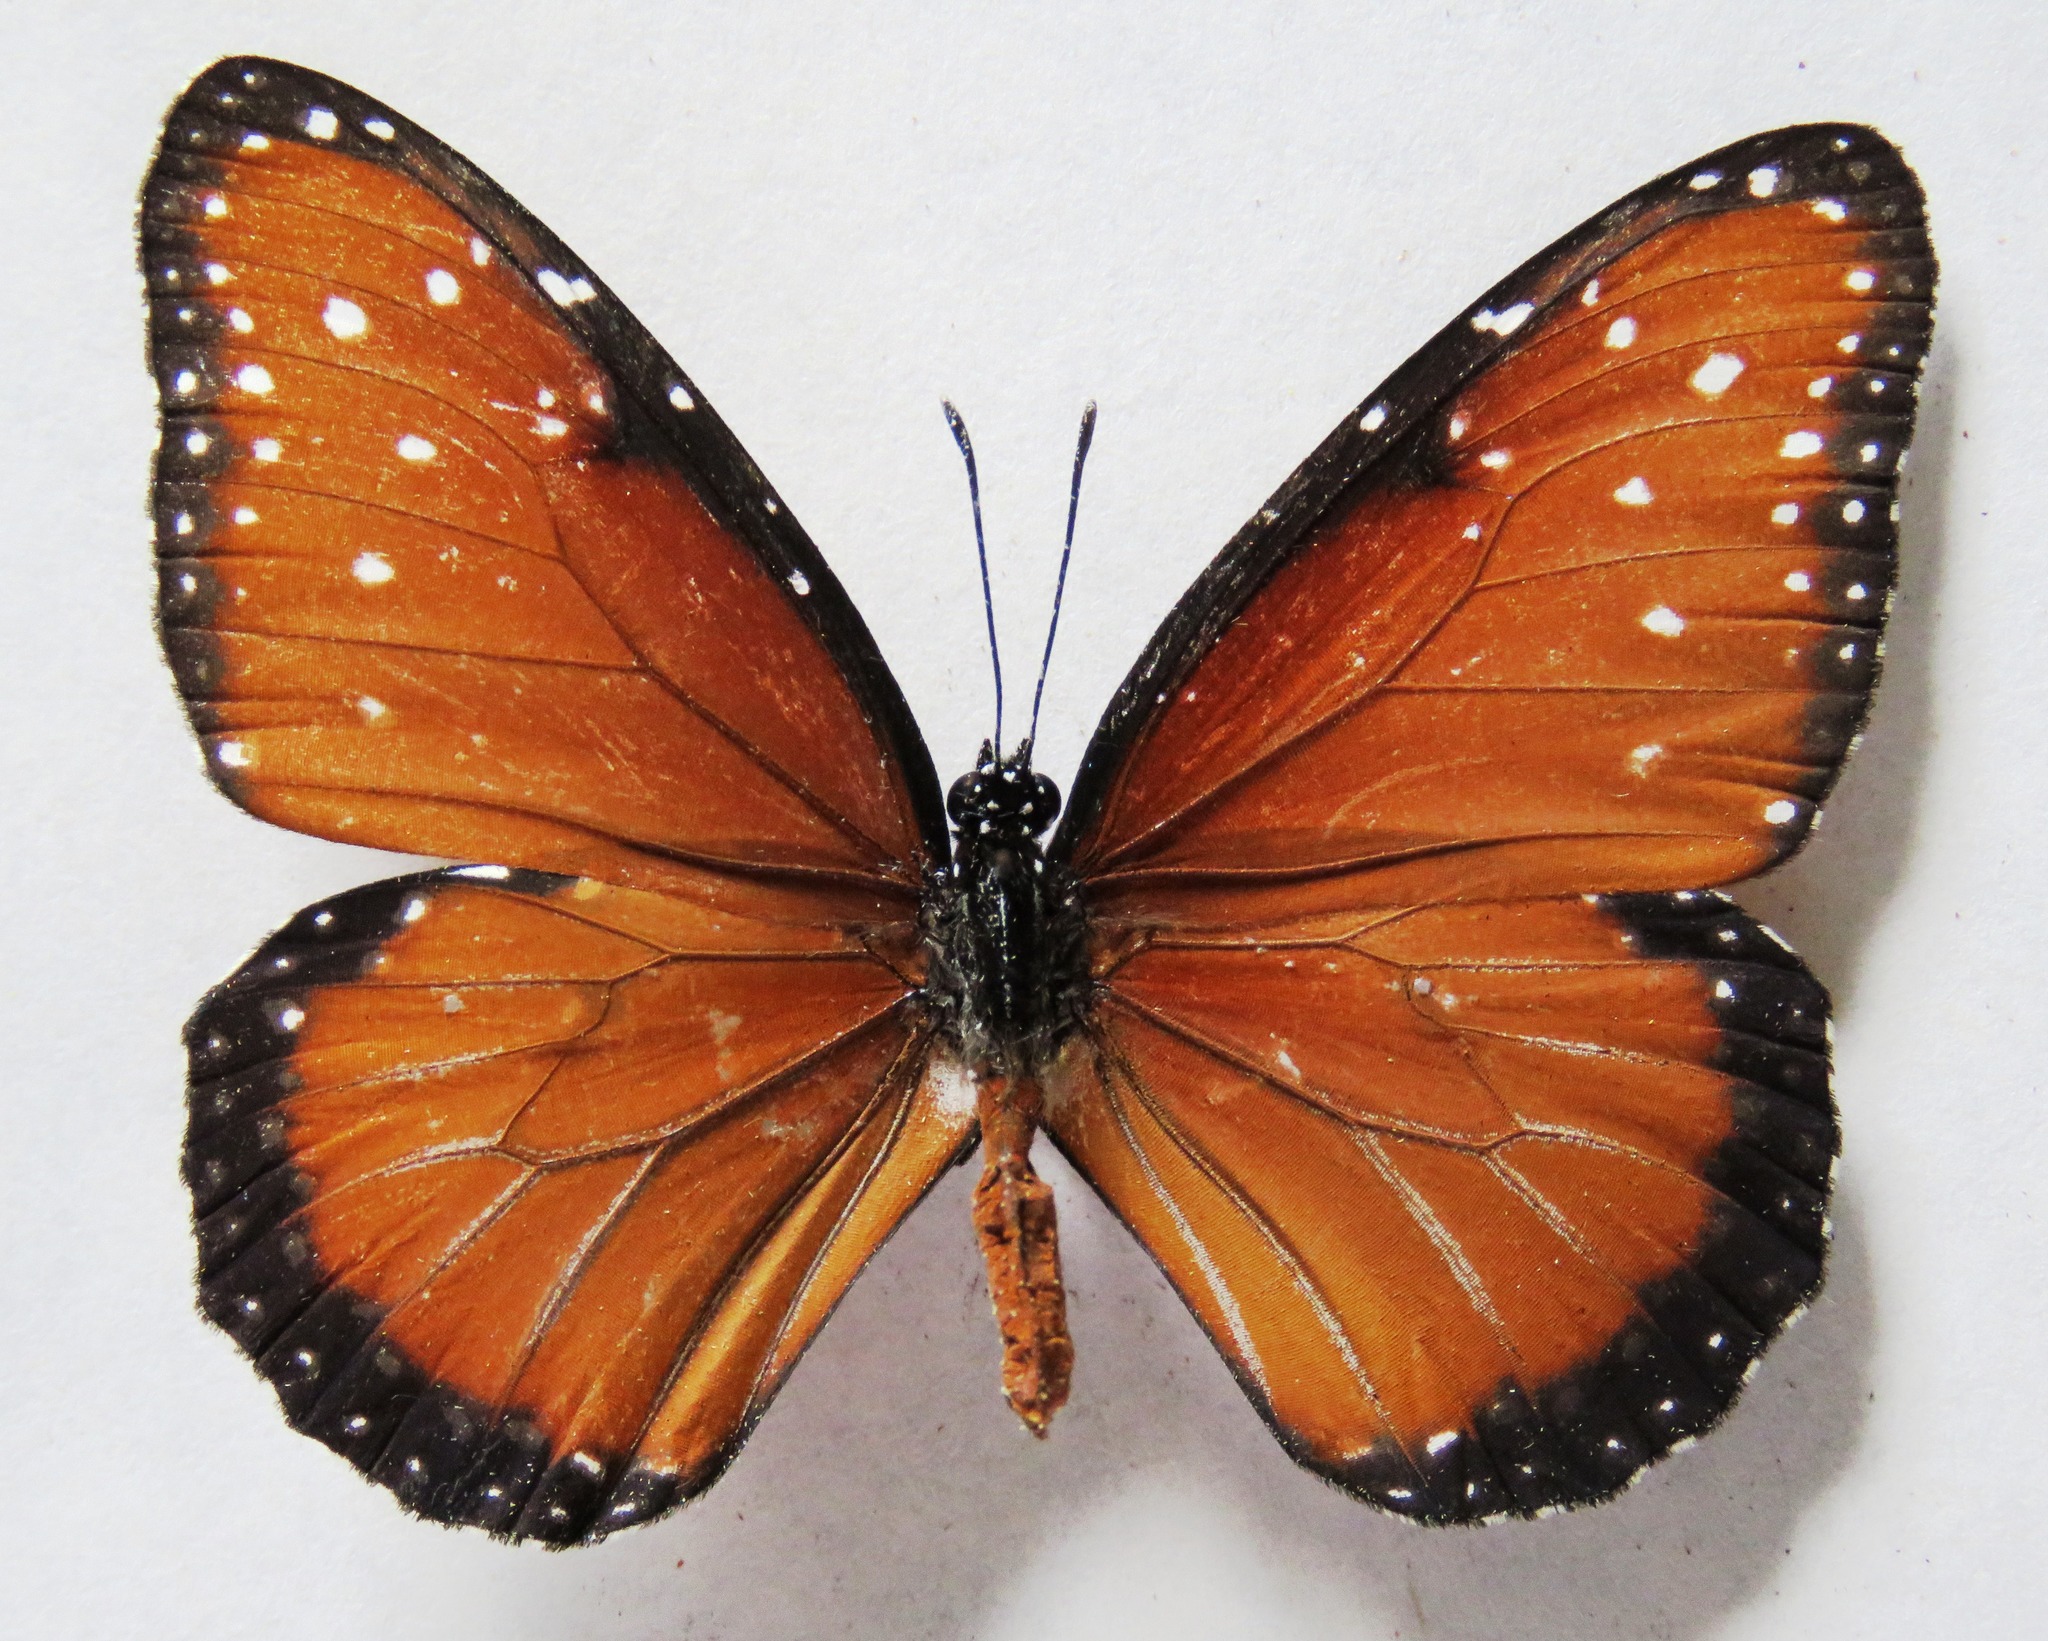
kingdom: Animalia
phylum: Arthropoda
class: Insecta
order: Lepidoptera
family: Nymphalidae
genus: Danaus
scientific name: Danaus gilippus
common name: Queen
